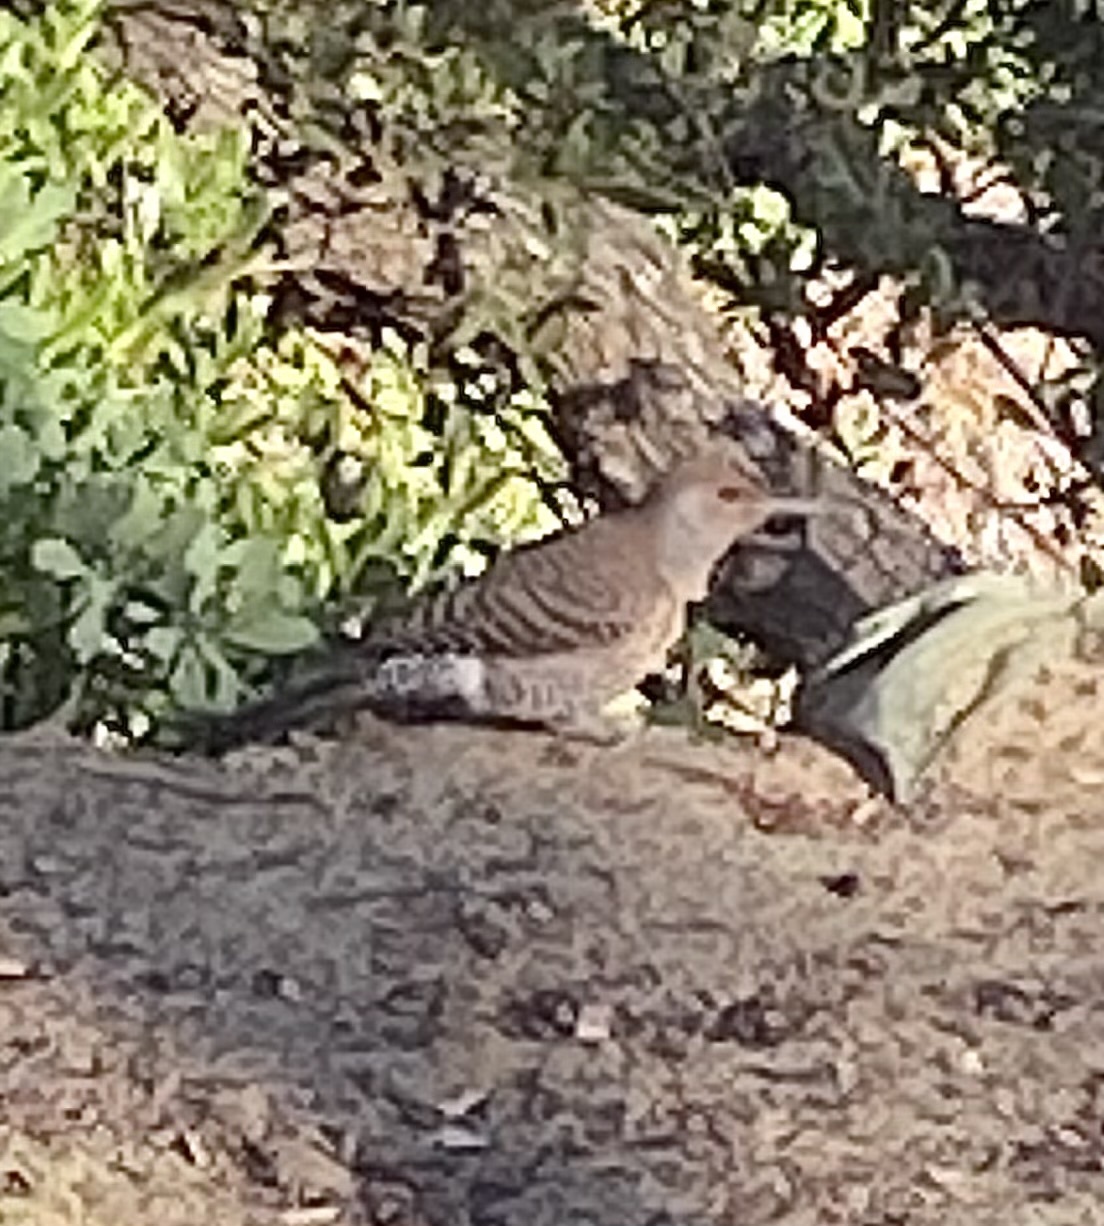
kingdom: Animalia
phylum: Chordata
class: Aves
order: Piciformes
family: Picidae
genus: Colaptes
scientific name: Colaptes auratus
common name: Northern flicker
